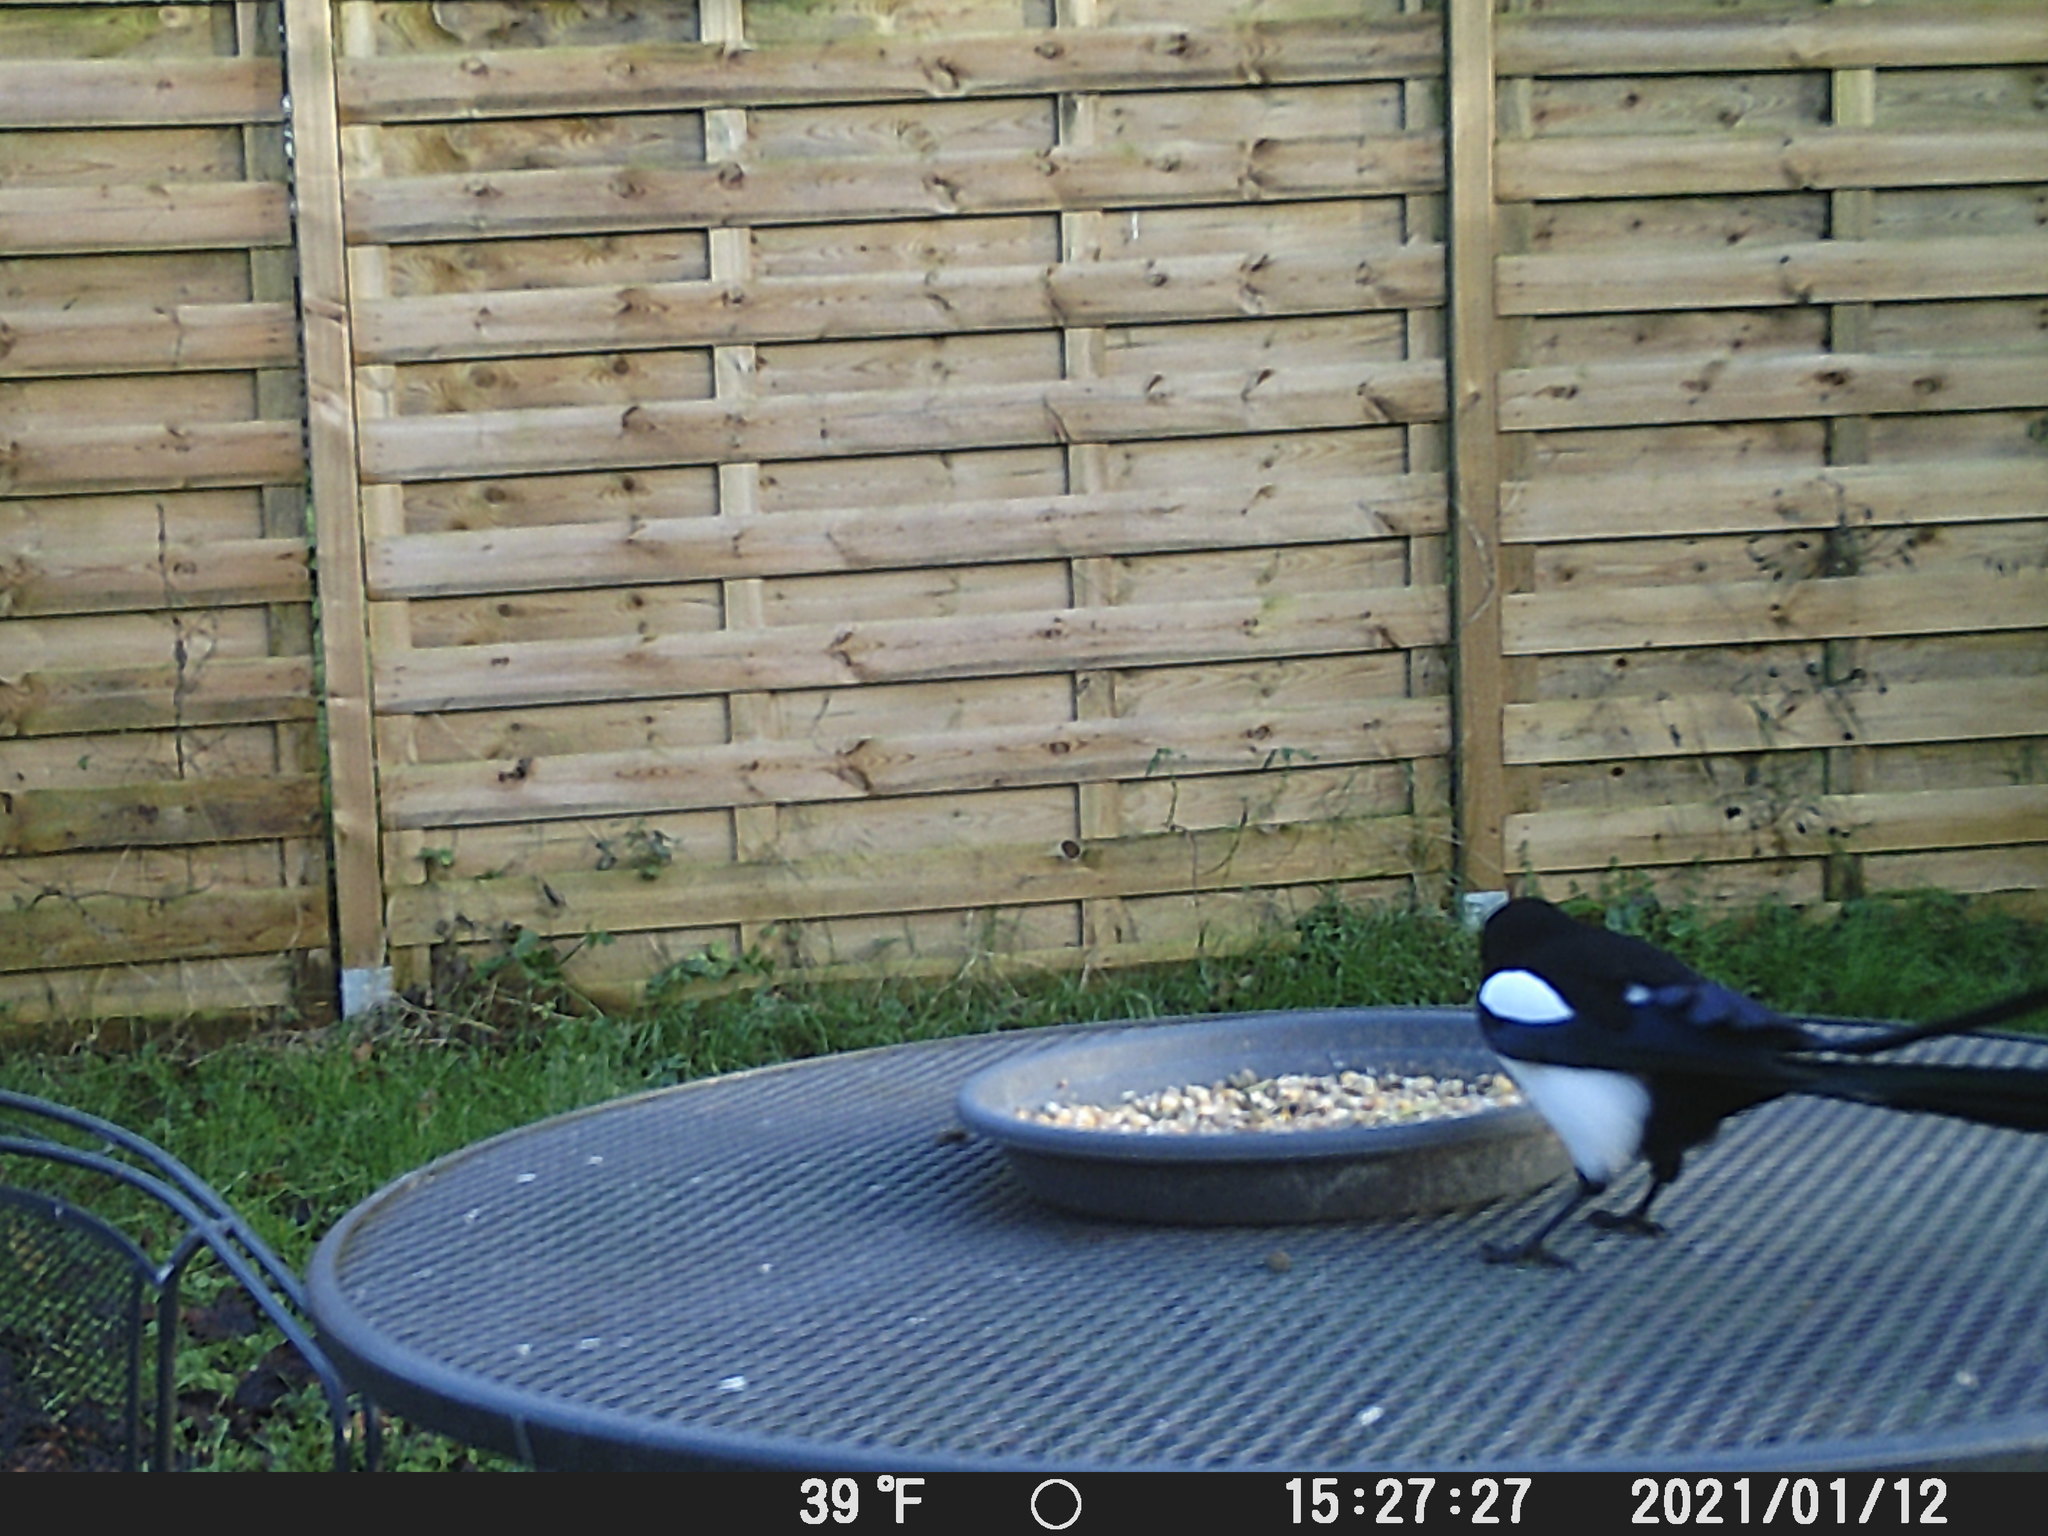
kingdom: Animalia
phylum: Chordata
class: Aves
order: Passeriformes
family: Corvidae
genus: Pica
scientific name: Pica pica
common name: Eurasian magpie
